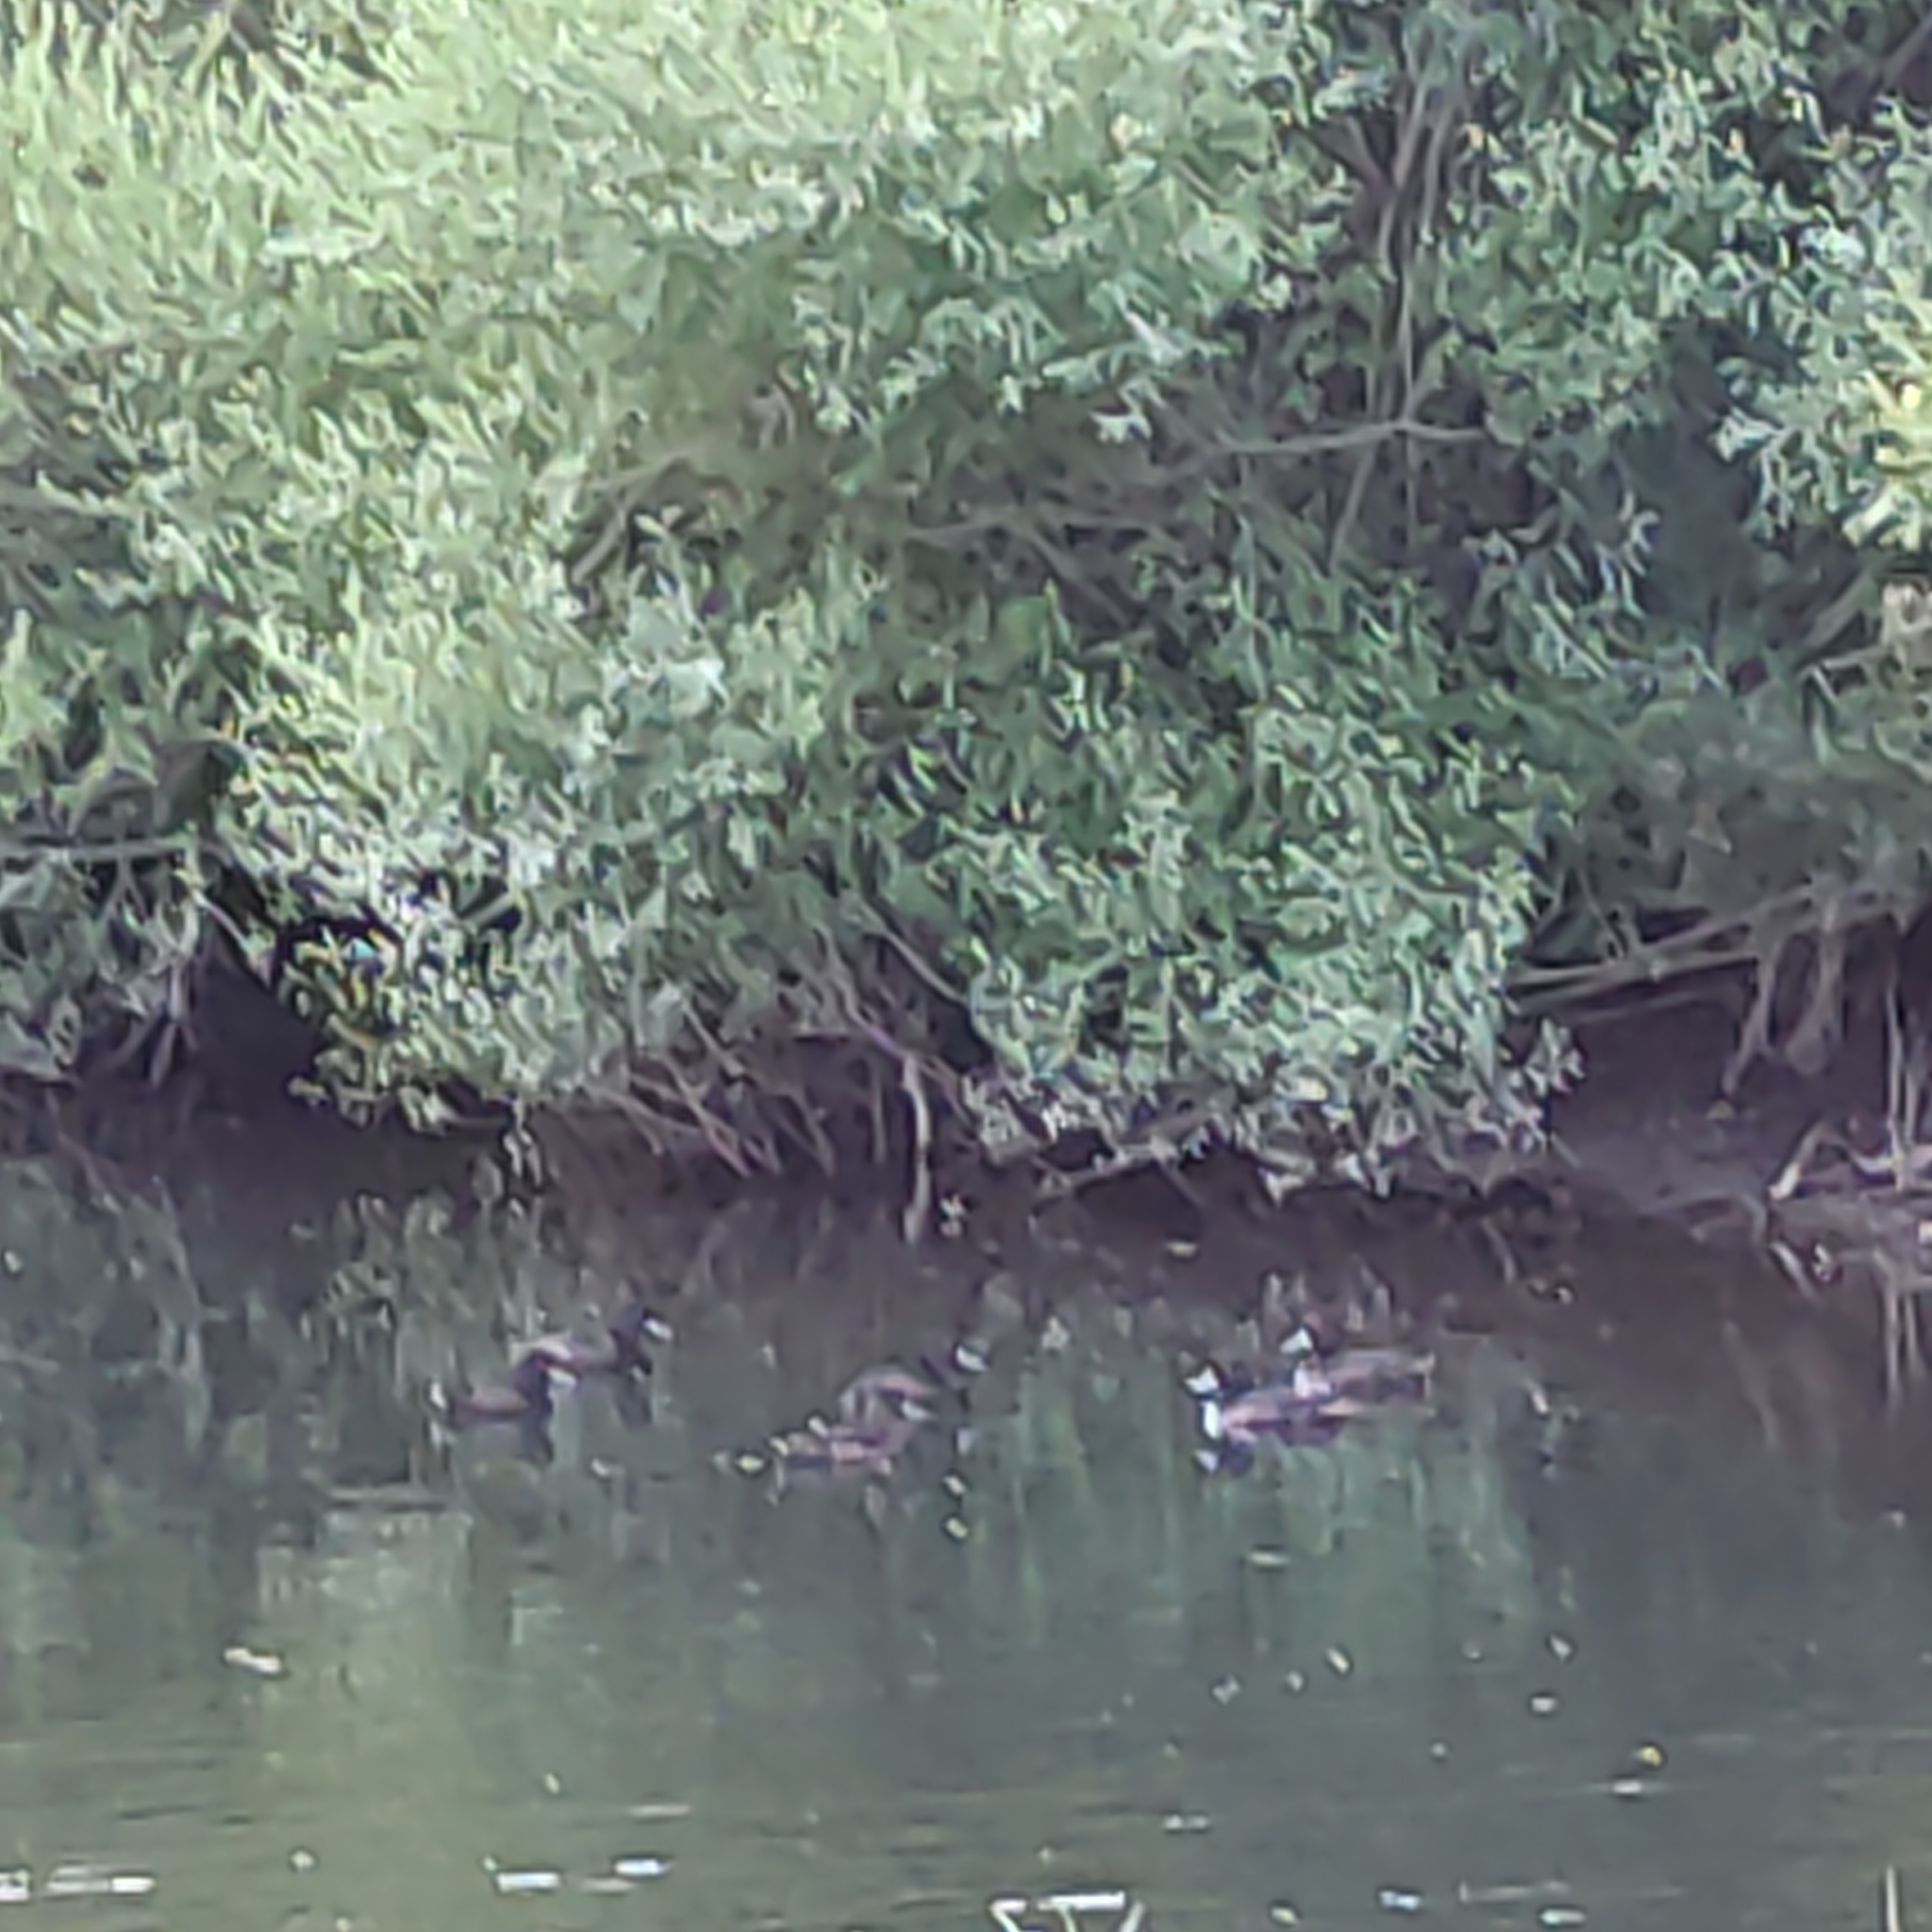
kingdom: Animalia
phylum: Chordata
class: Aves
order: Anseriformes
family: Anatidae
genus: Aythya
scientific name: Aythya novaeseelandiae
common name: New zealand scaup
